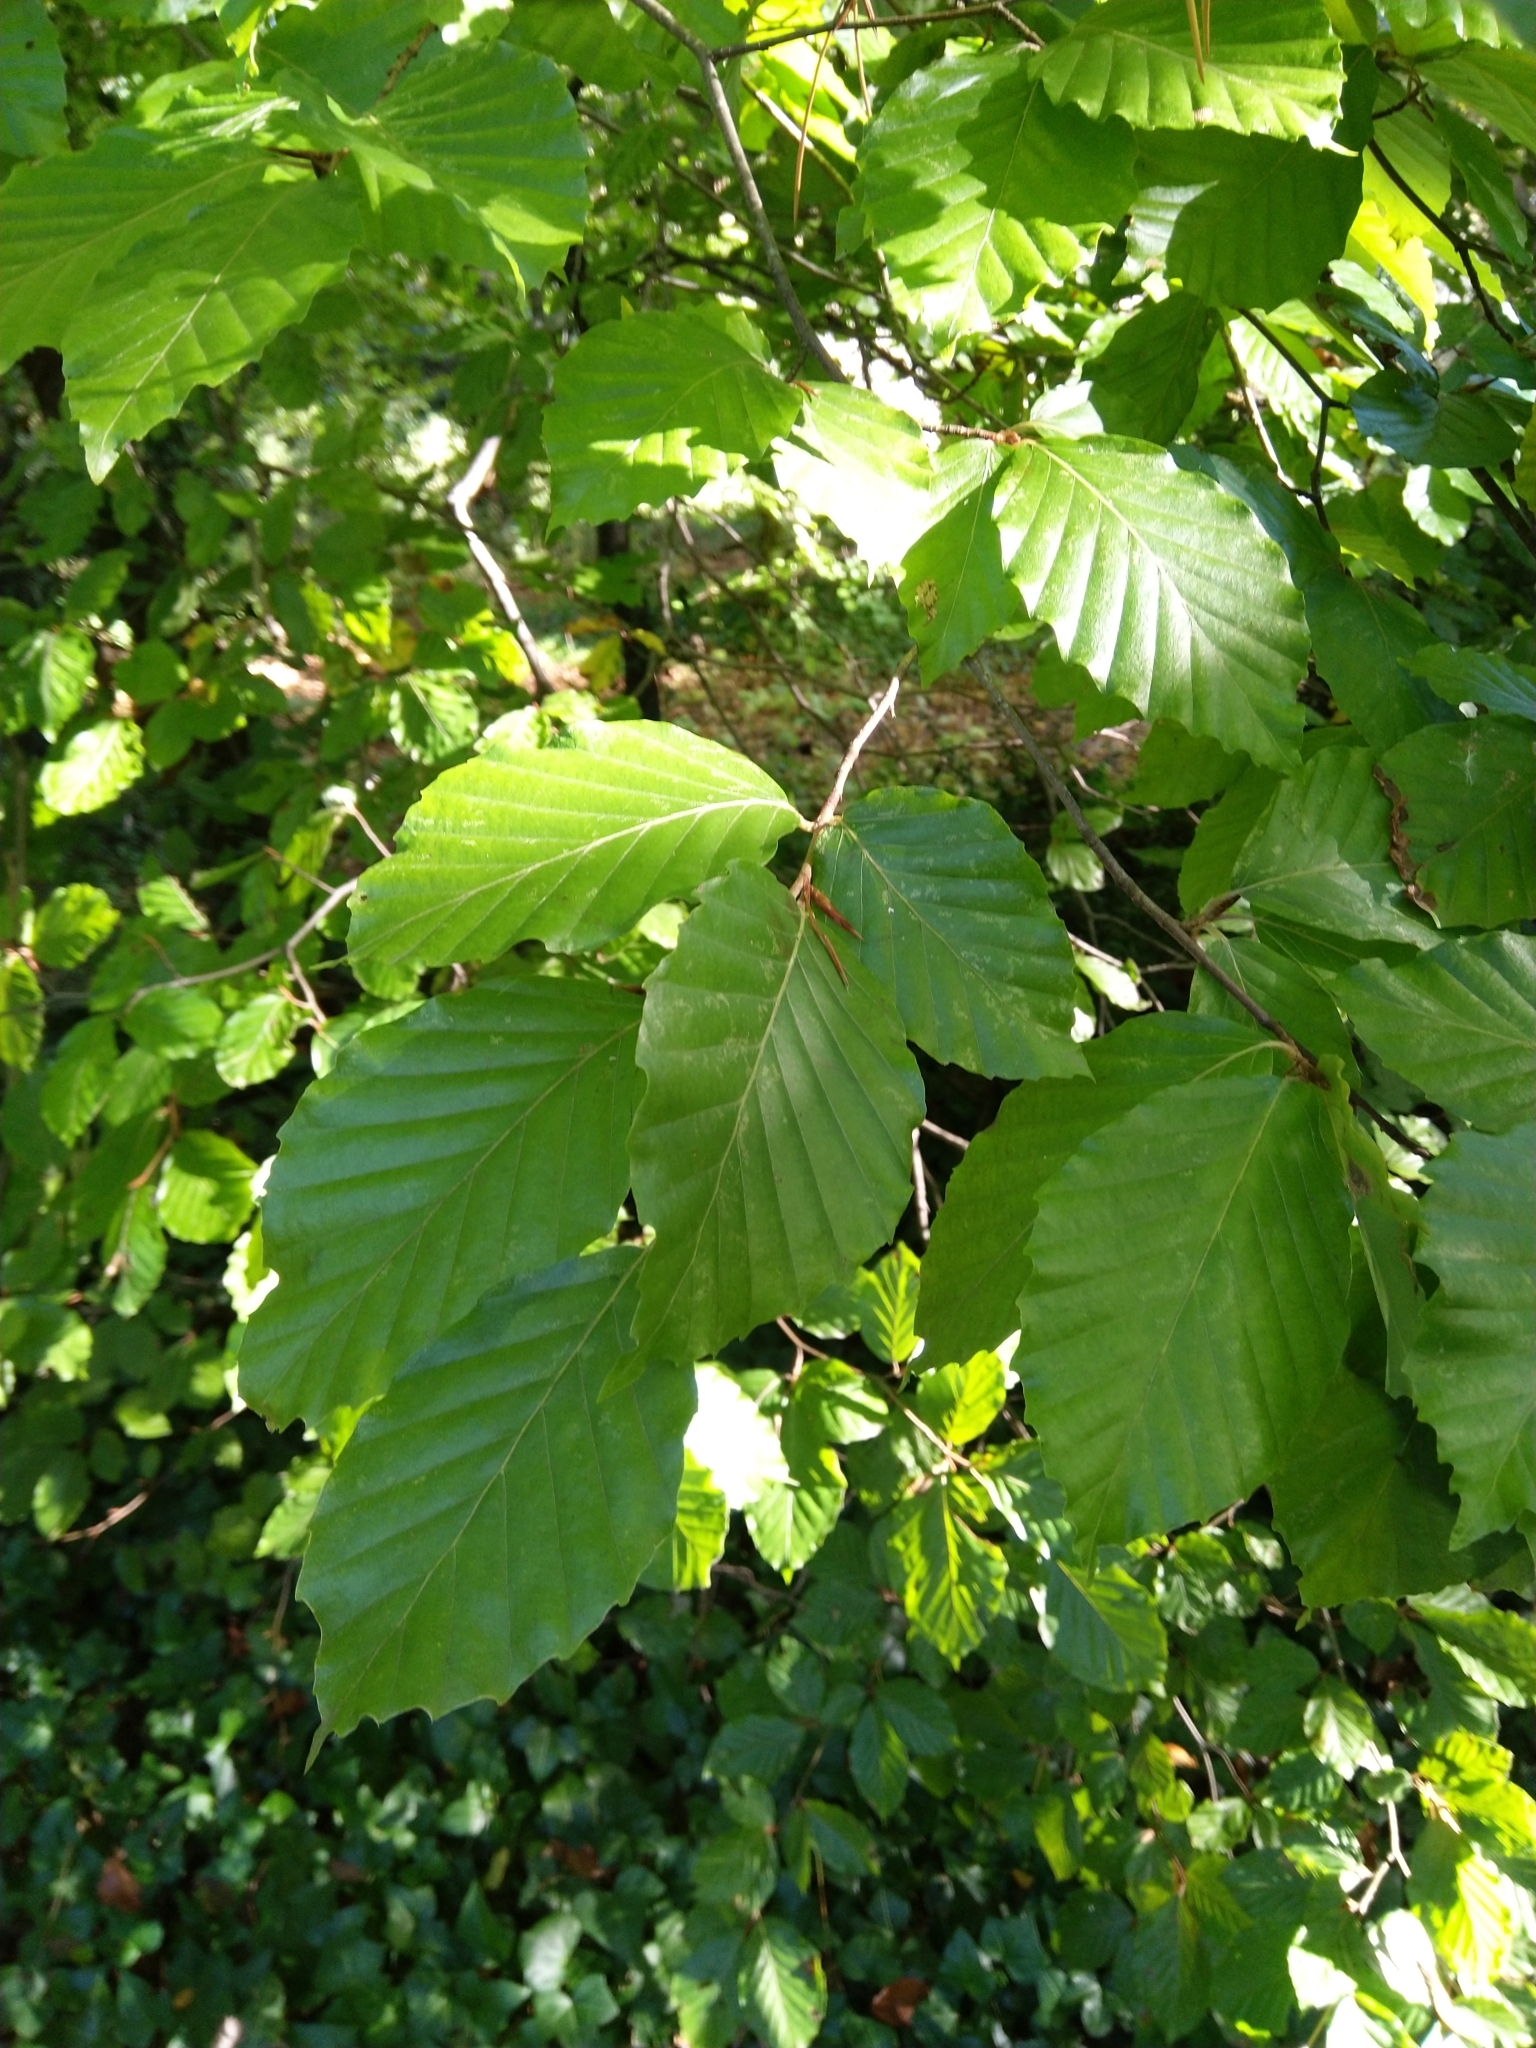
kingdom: Plantae
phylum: Tracheophyta
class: Magnoliopsida
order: Fagales
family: Fagaceae
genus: Fagus
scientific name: Fagus sylvatica
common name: Beech
